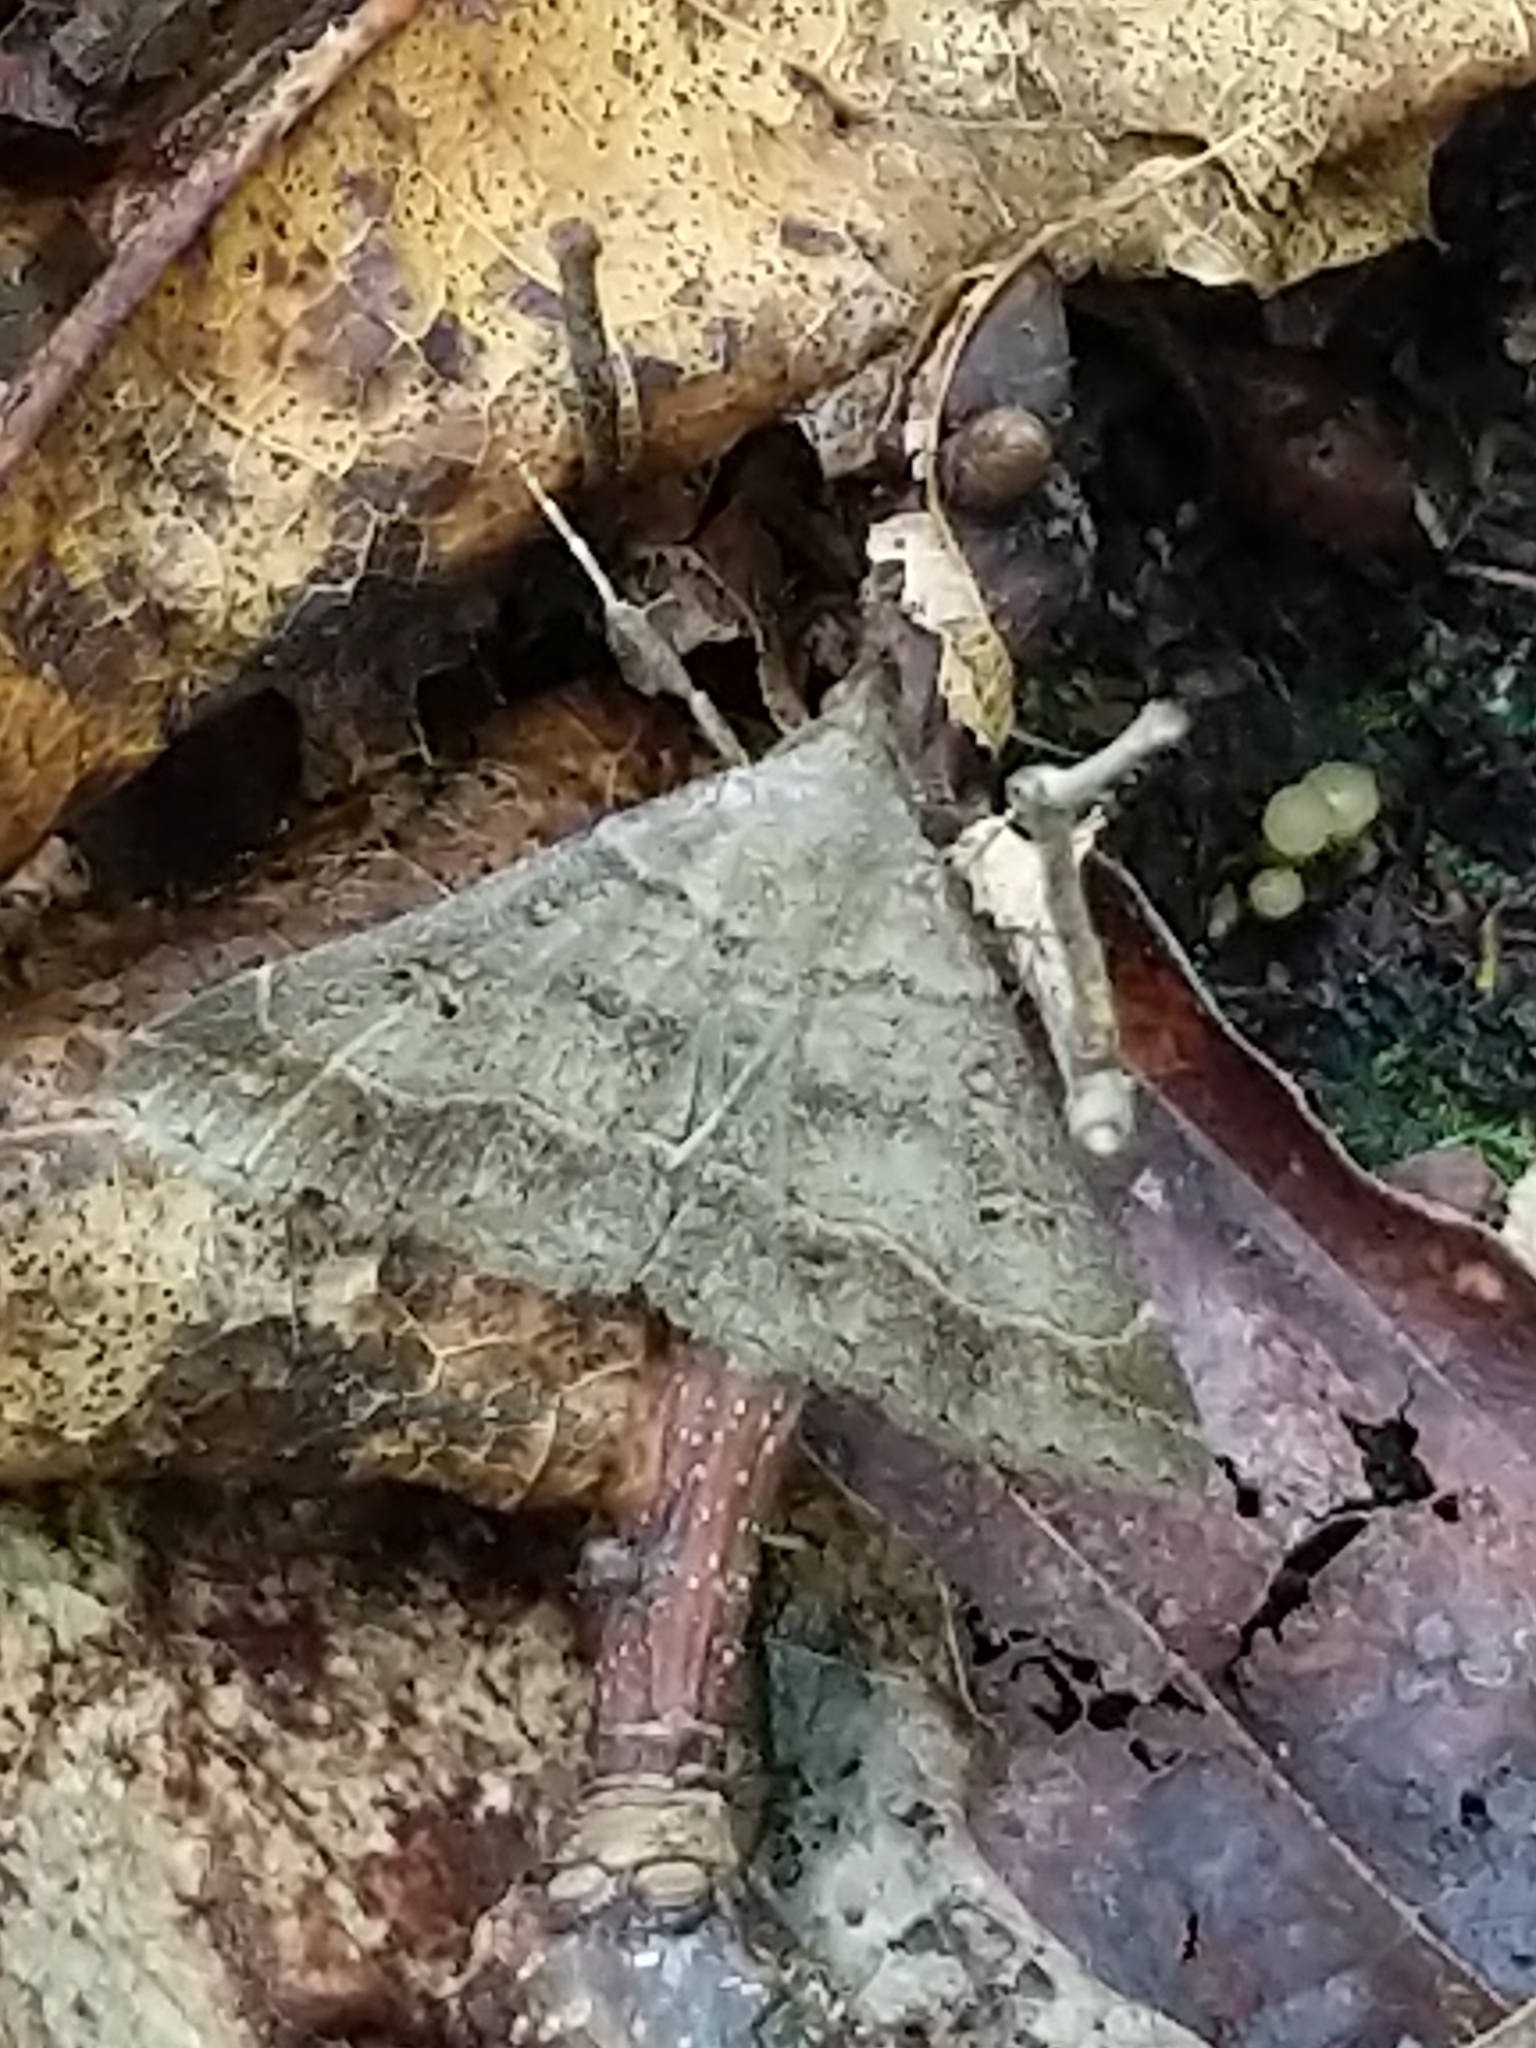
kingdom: Animalia
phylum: Arthropoda
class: Insecta
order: Lepidoptera
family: Erebidae
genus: Renia
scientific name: Renia flavipunctalis
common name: Yellow-spotted renia moth
